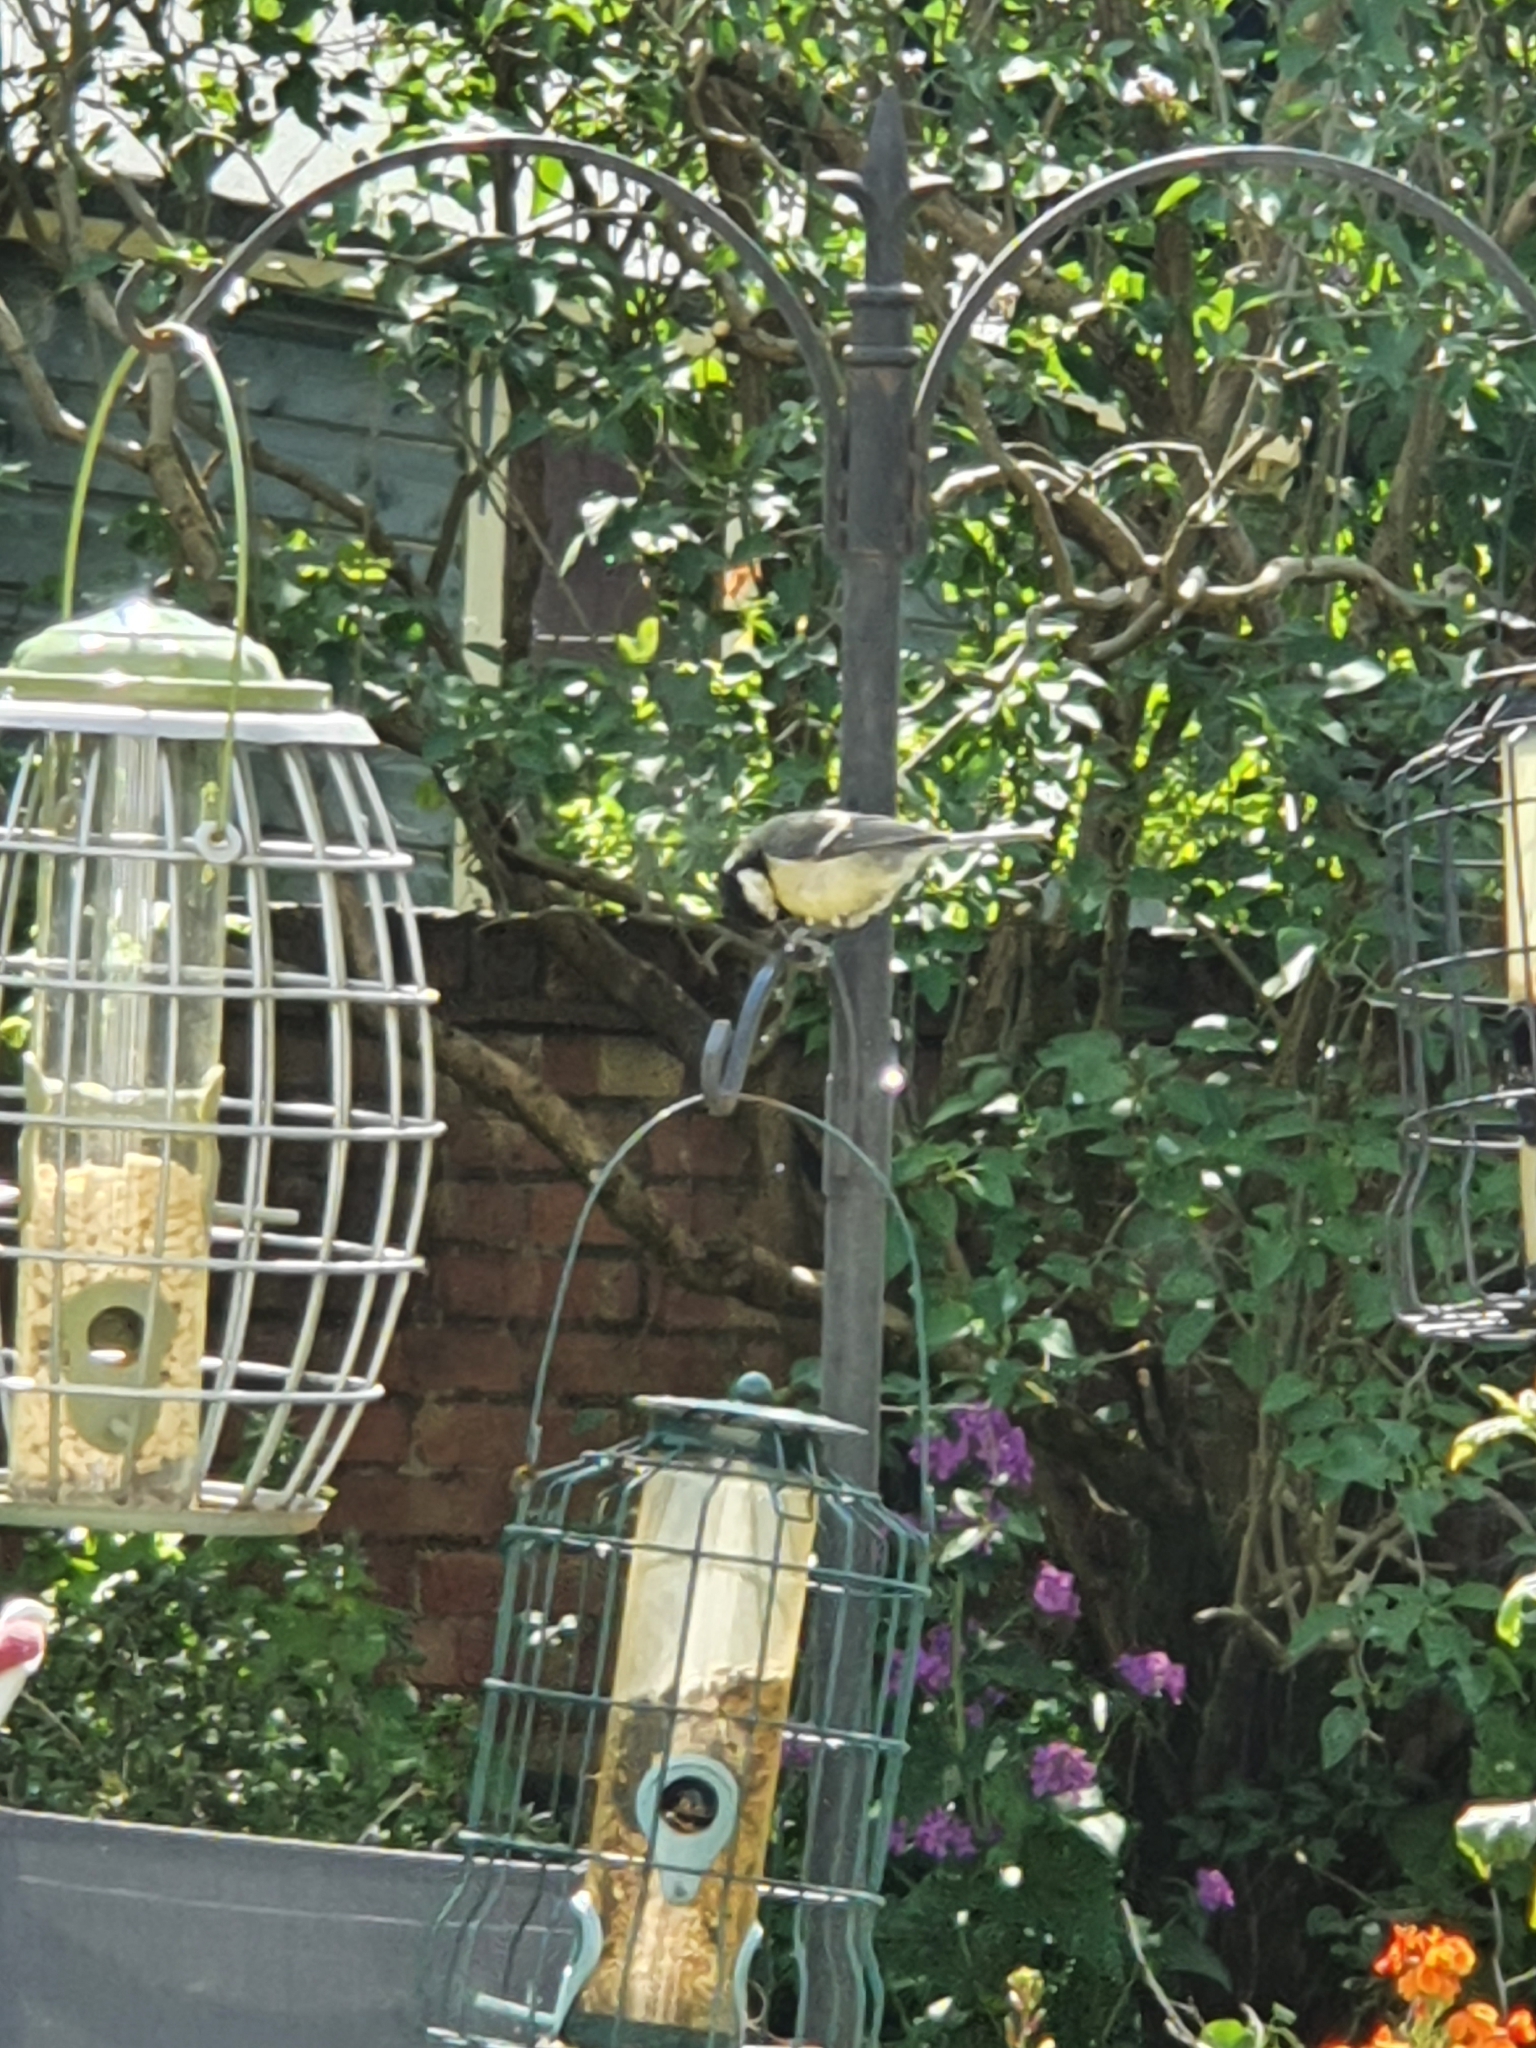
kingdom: Animalia
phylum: Chordata
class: Aves
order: Passeriformes
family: Paridae
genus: Parus
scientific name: Parus major
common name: Great tit
